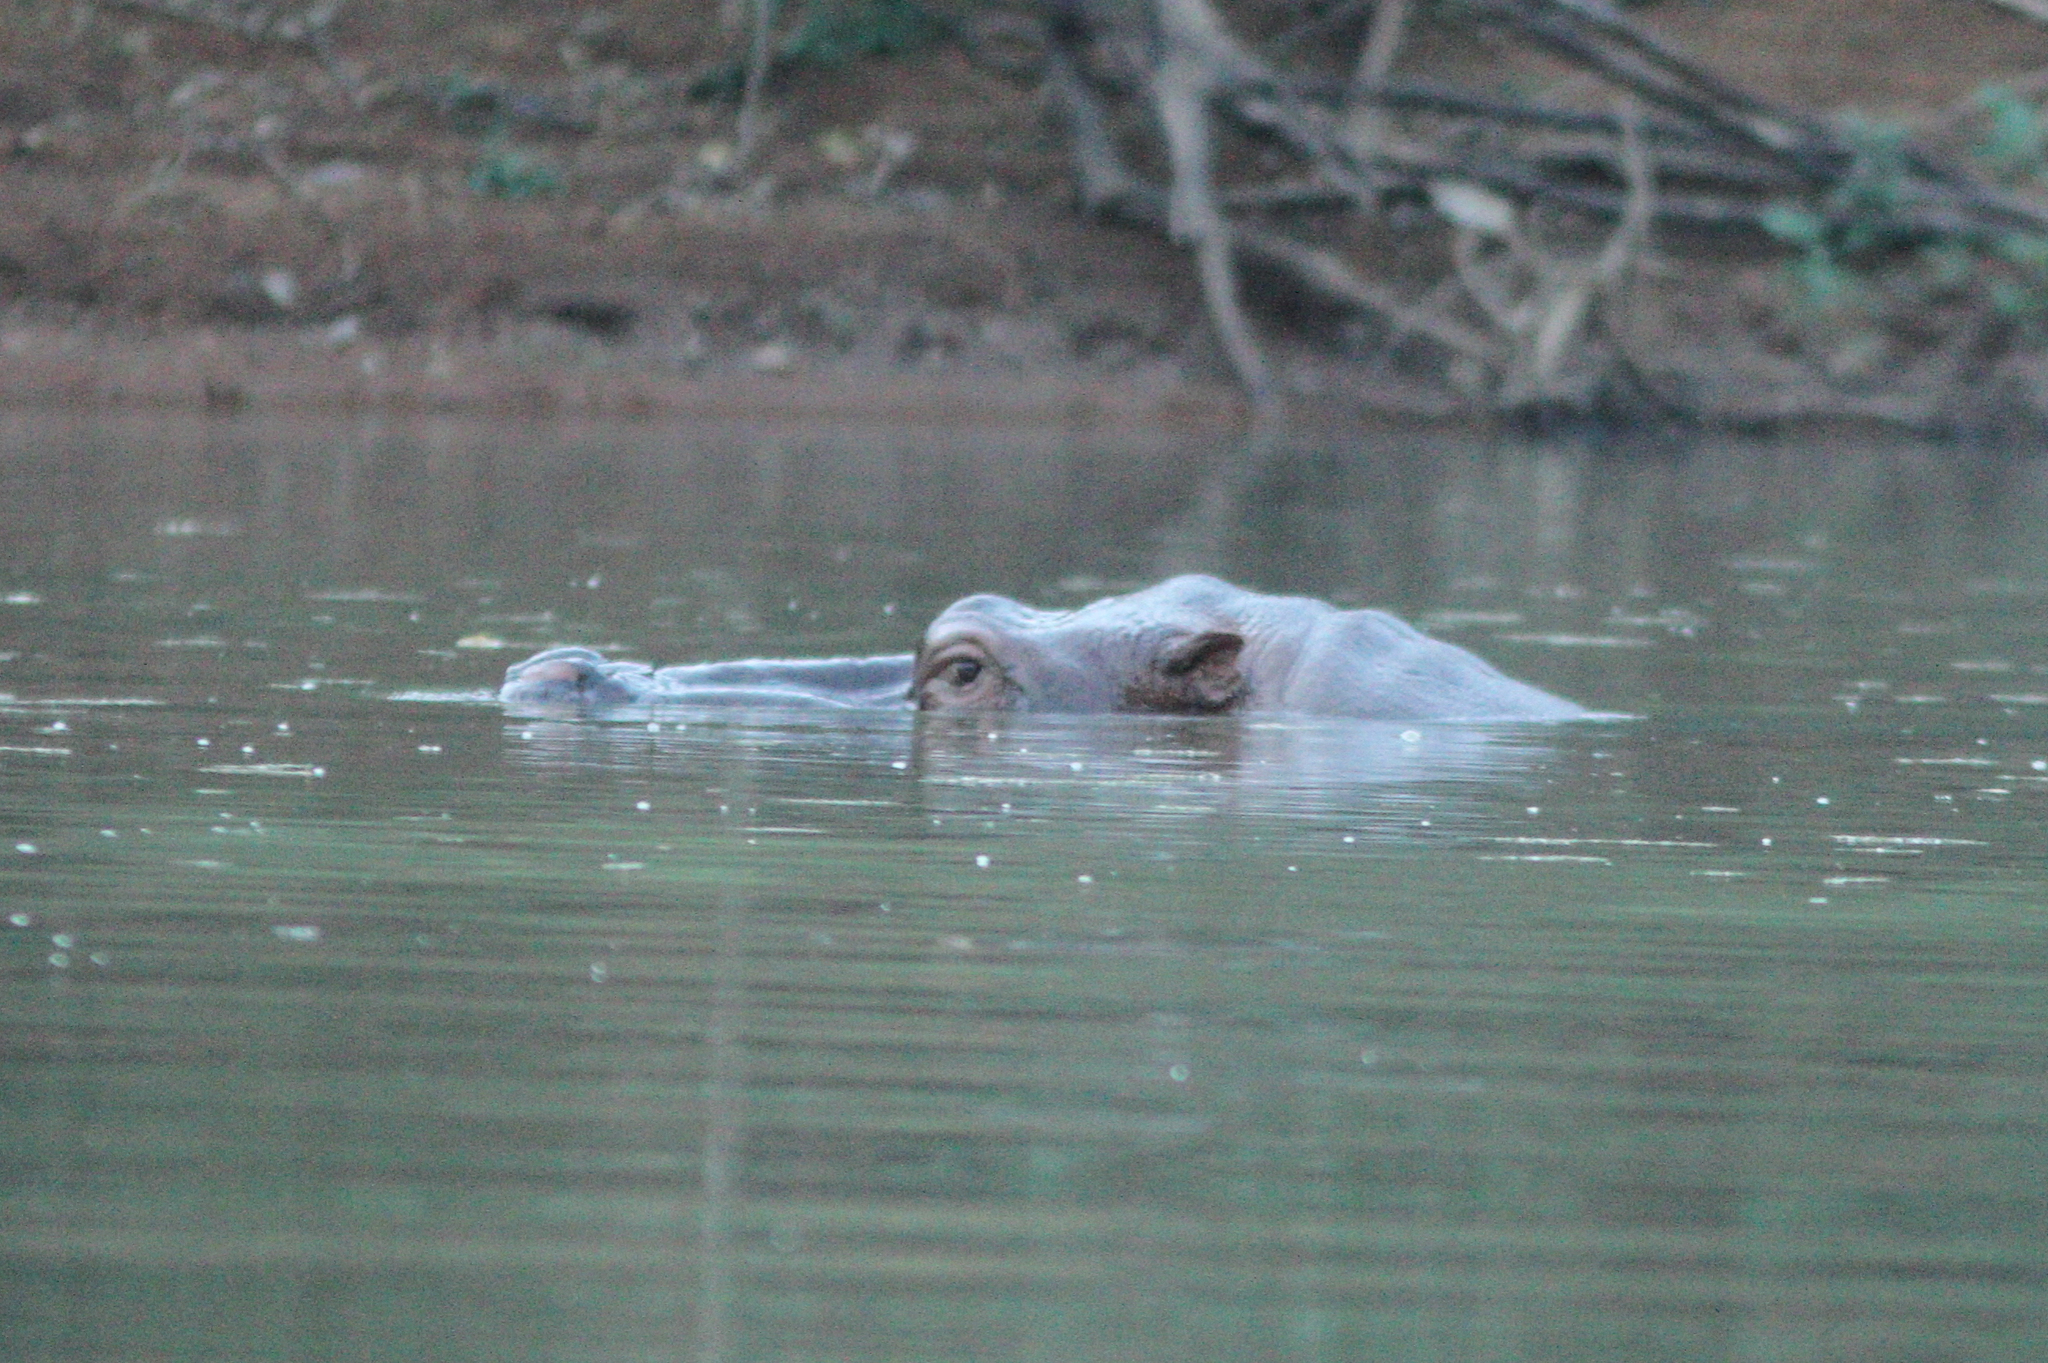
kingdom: Animalia
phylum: Chordata
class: Mammalia
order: Artiodactyla
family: Hippopotamidae
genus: Hippopotamus
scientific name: Hippopotamus amphibius
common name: Common hippopotamus
